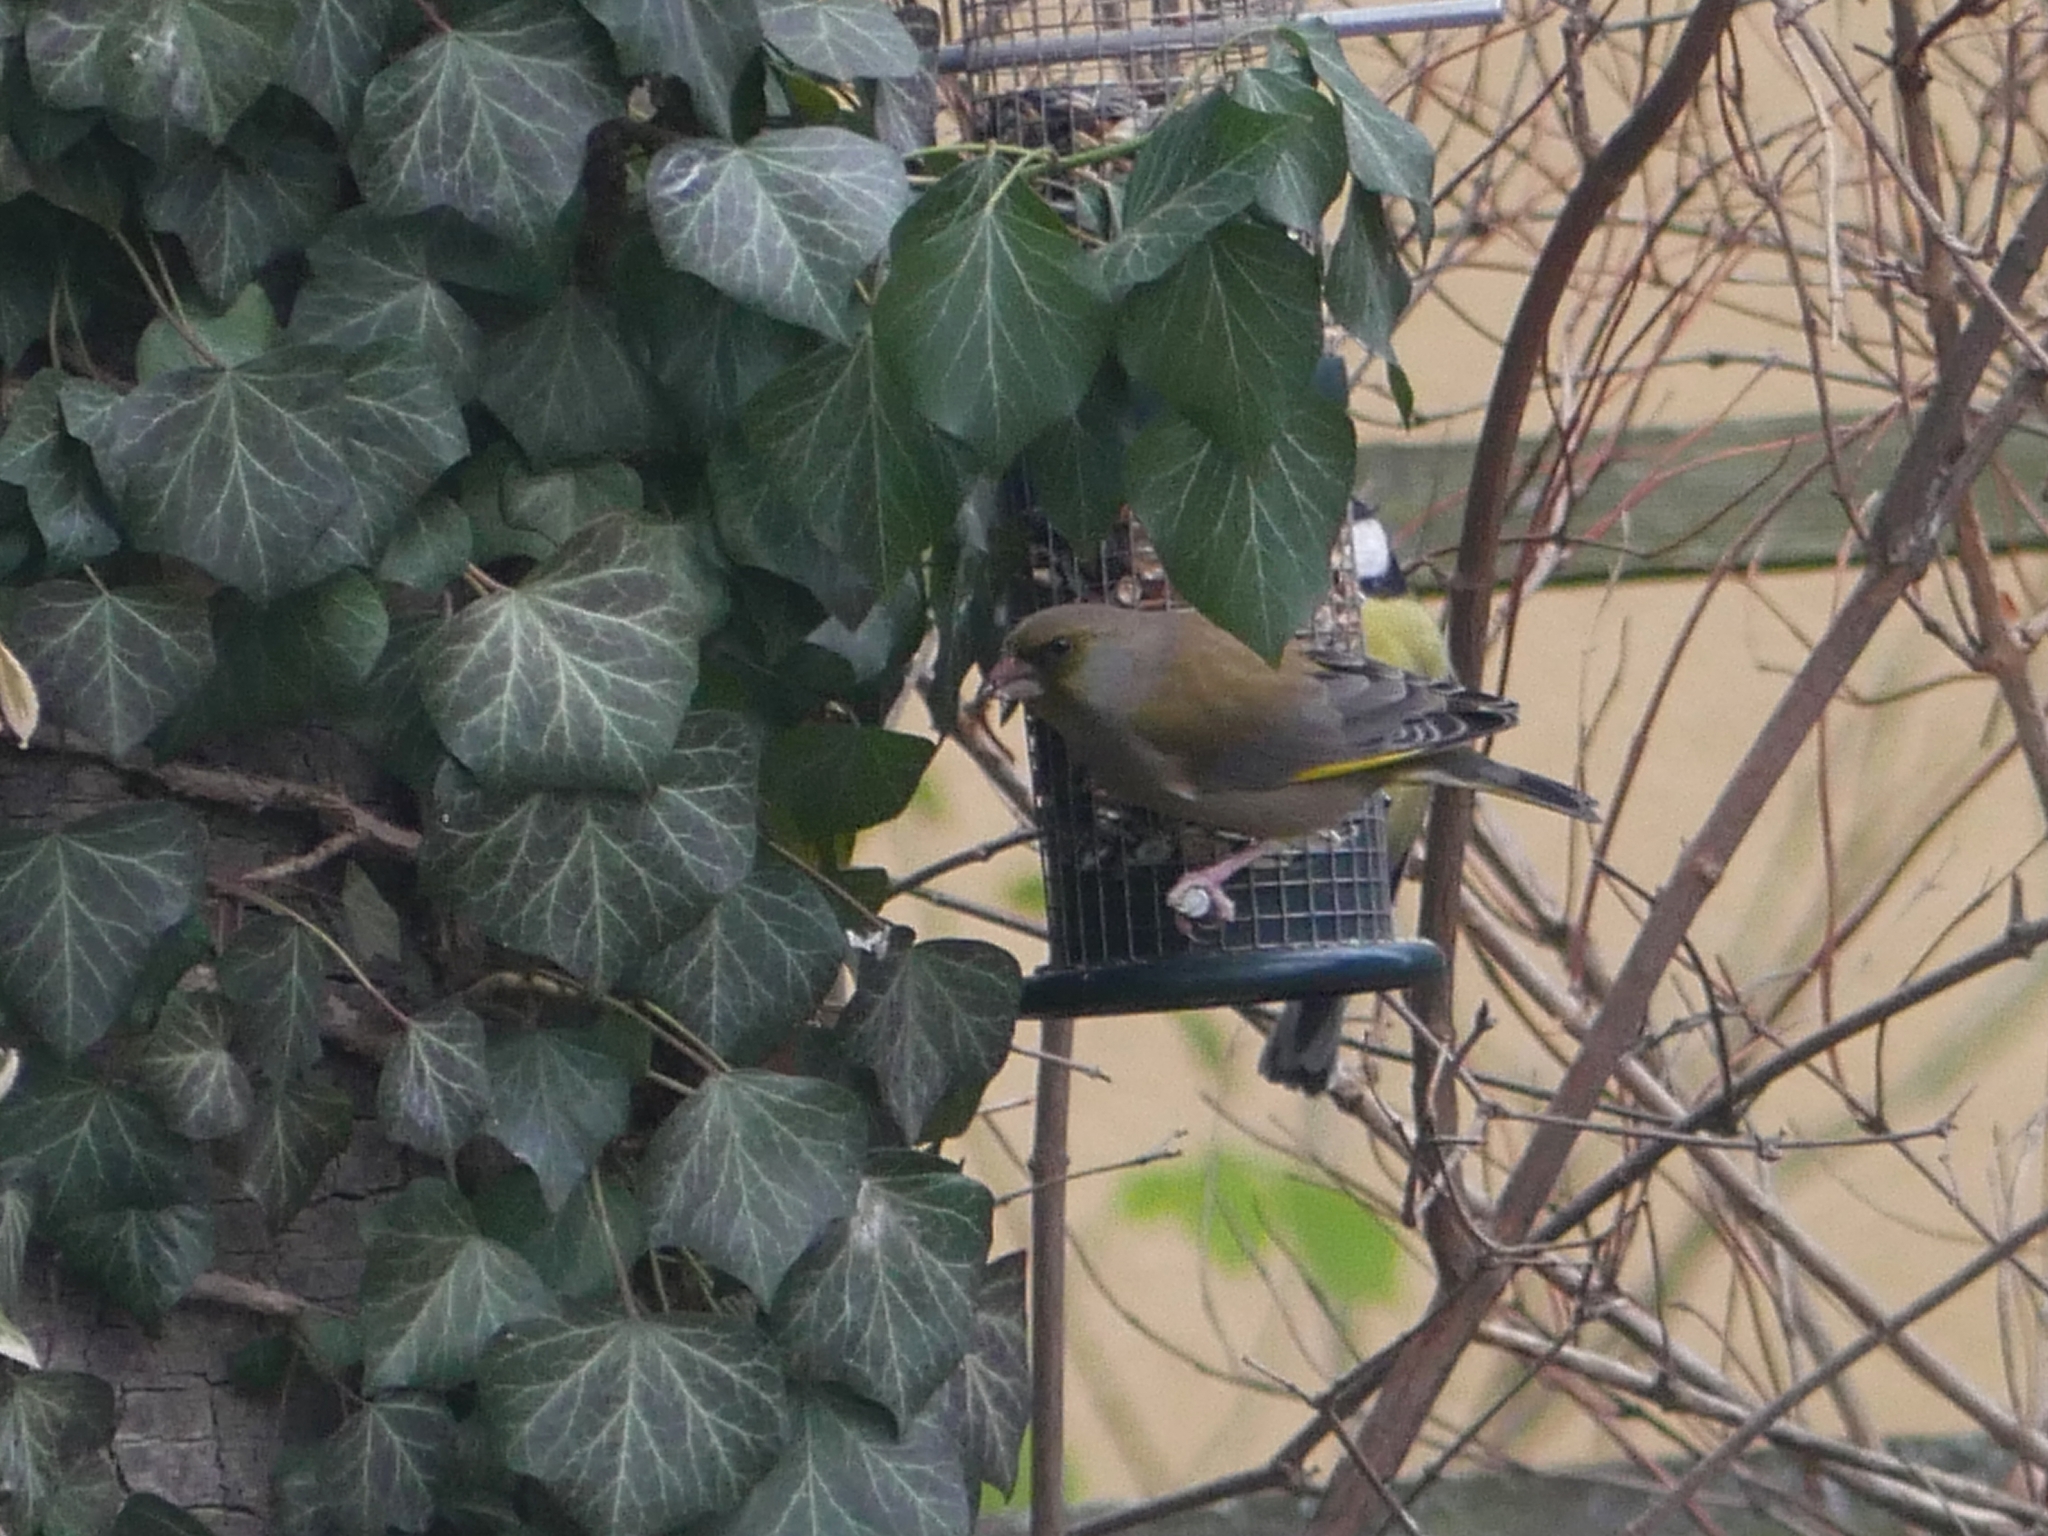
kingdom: Plantae
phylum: Tracheophyta
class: Liliopsida
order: Poales
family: Poaceae
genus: Chloris
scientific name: Chloris chloris
